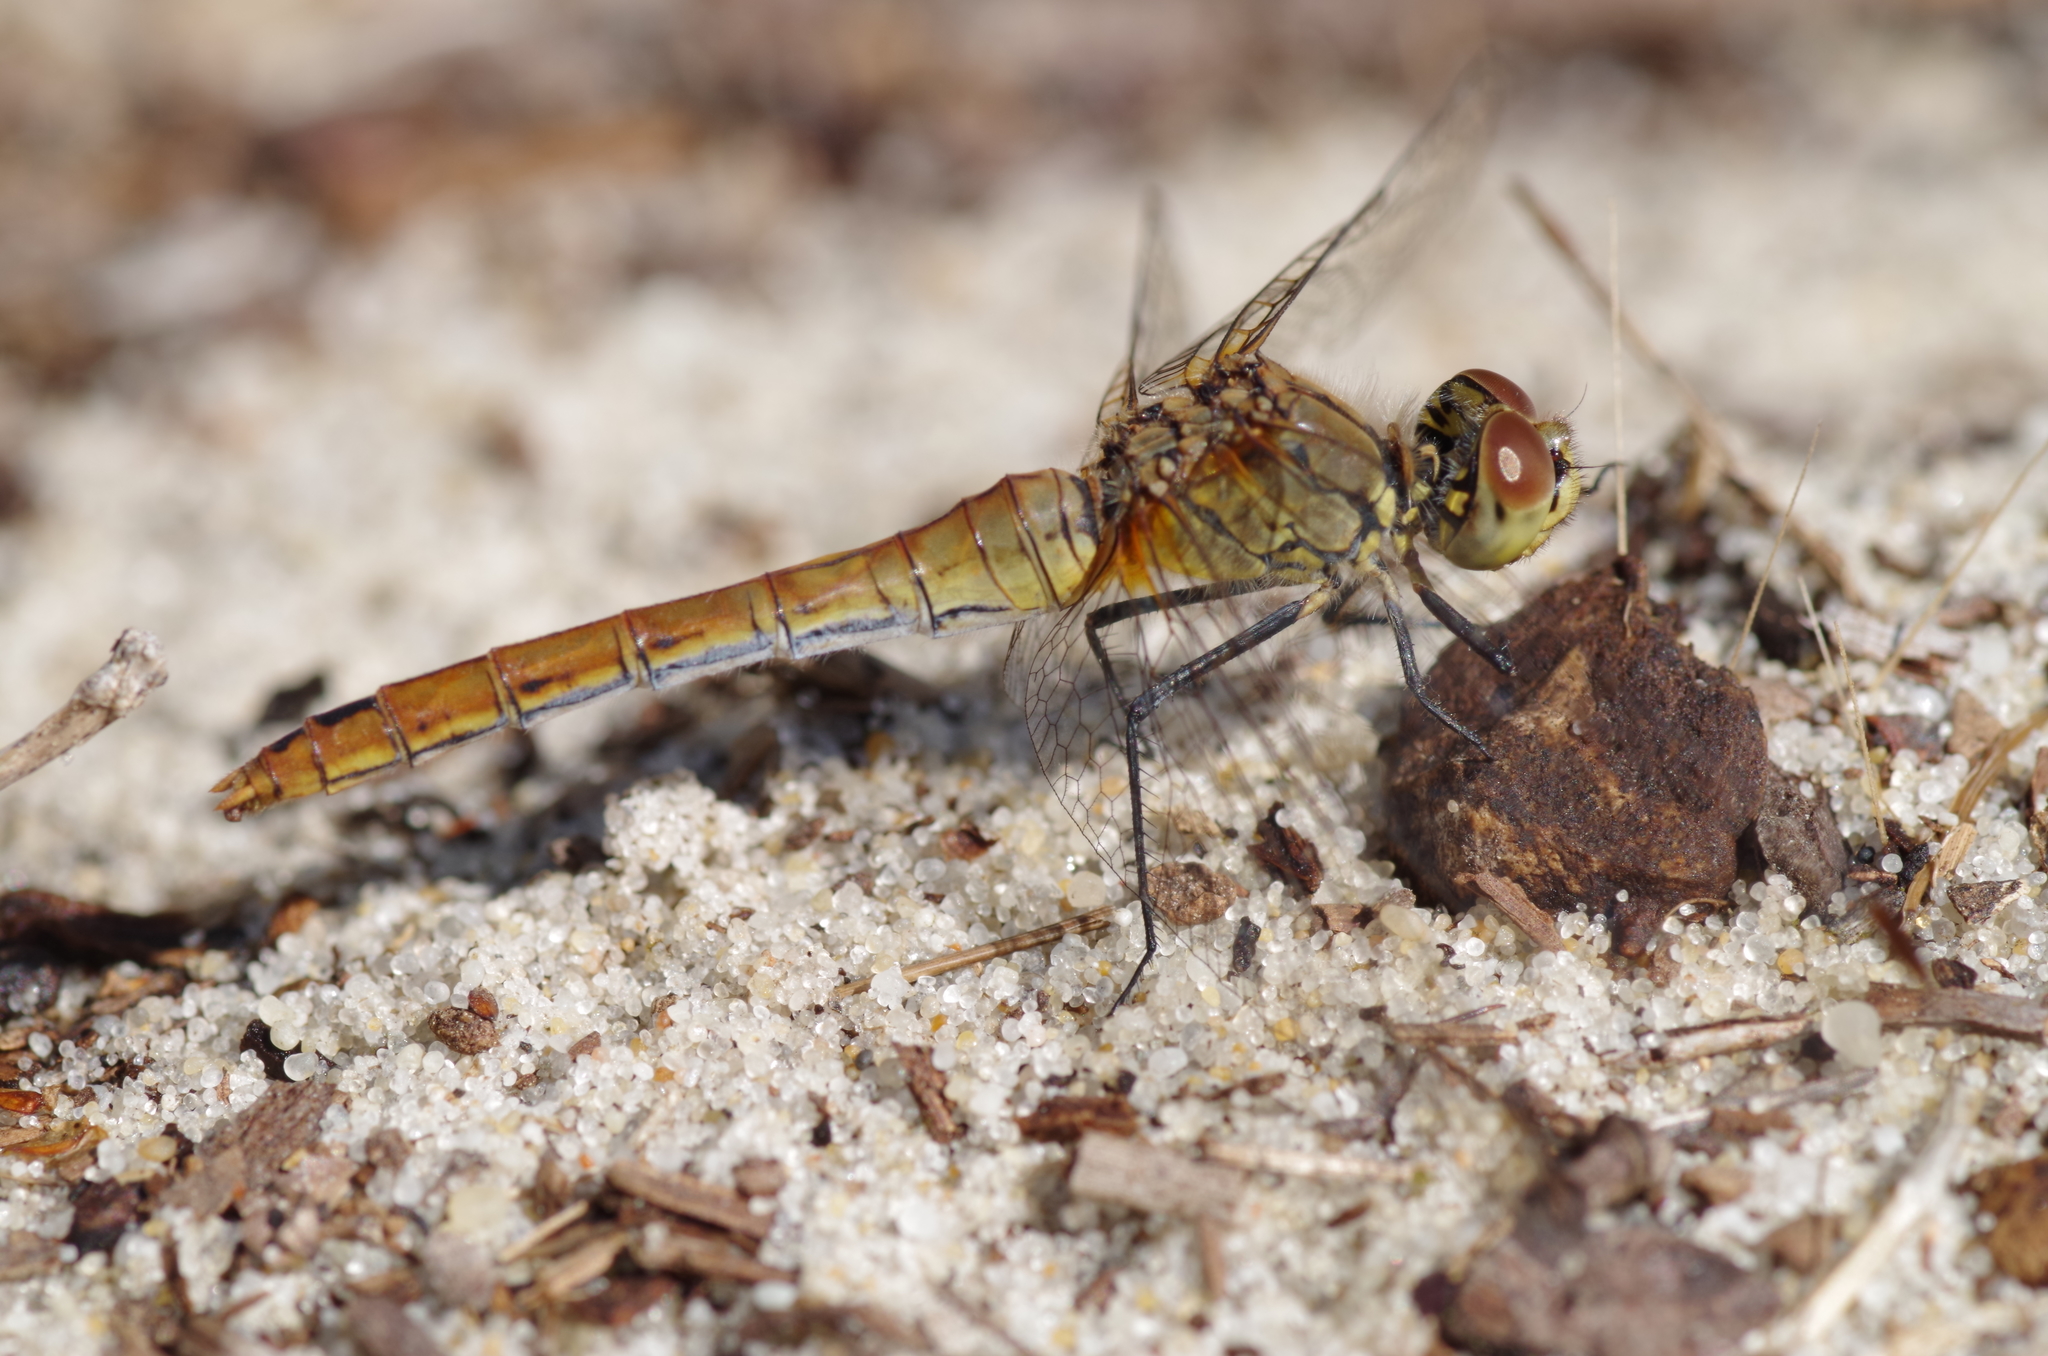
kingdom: Animalia
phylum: Arthropoda
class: Insecta
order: Odonata
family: Libellulidae
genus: Sympetrum
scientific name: Sympetrum sanguineum
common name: Ruddy darter
